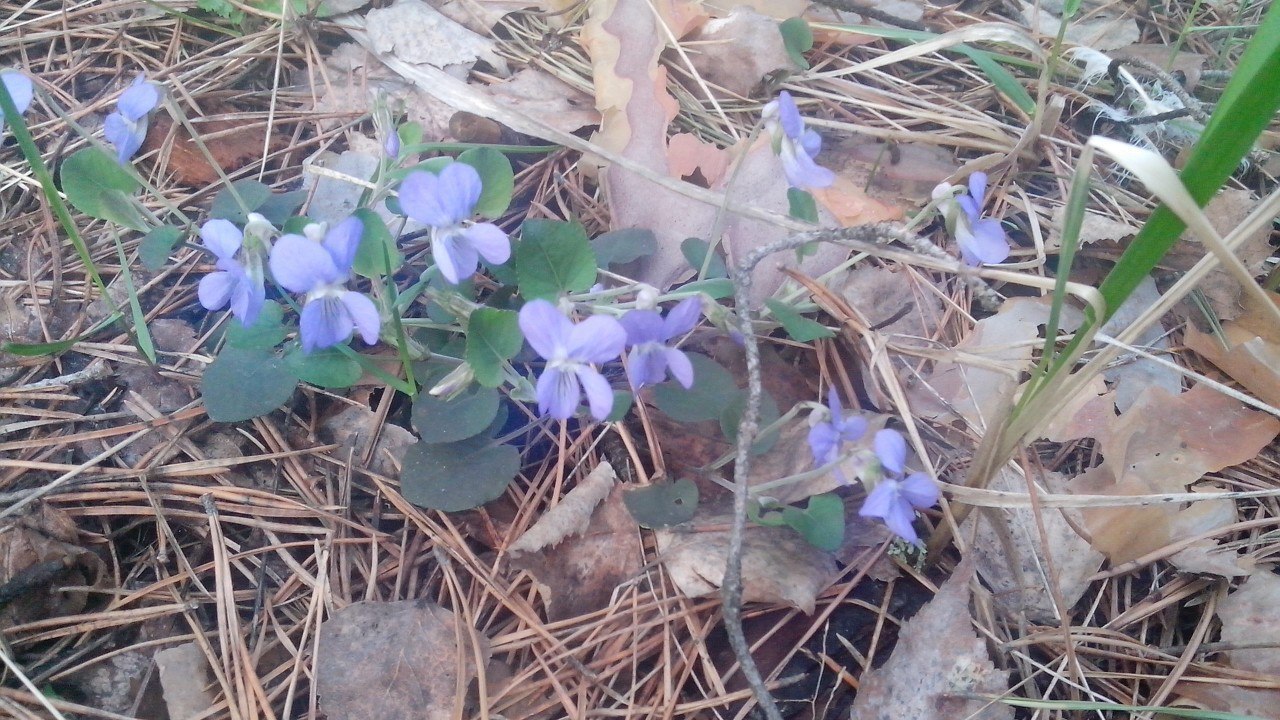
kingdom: Plantae
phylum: Tracheophyta
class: Magnoliopsida
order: Malpighiales
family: Violaceae
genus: Viola
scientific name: Viola rupestris
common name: Teesdale violet
